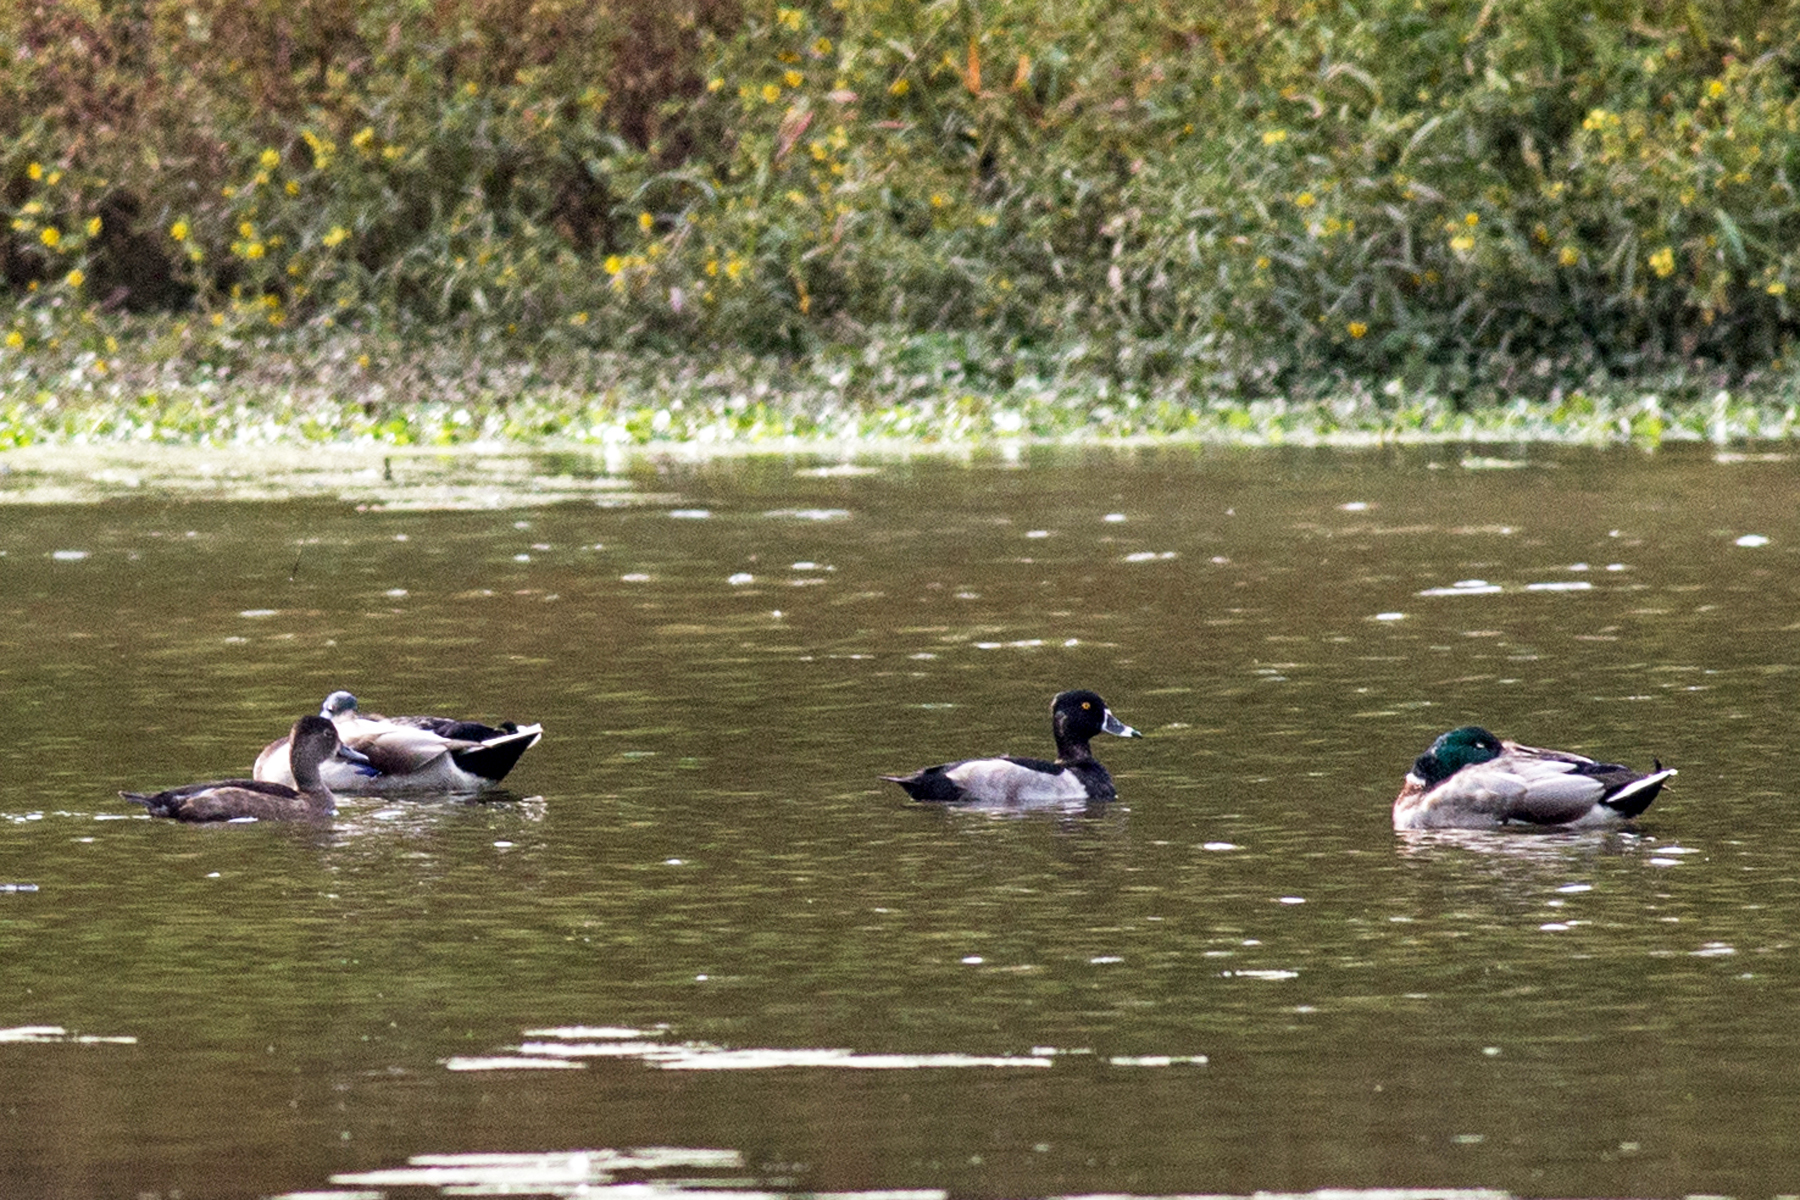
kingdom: Animalia
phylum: Chordata
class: Aves
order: Anseriformes
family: Anatidae
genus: Aythya
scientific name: Aythya collaris
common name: Ring-necked duck
